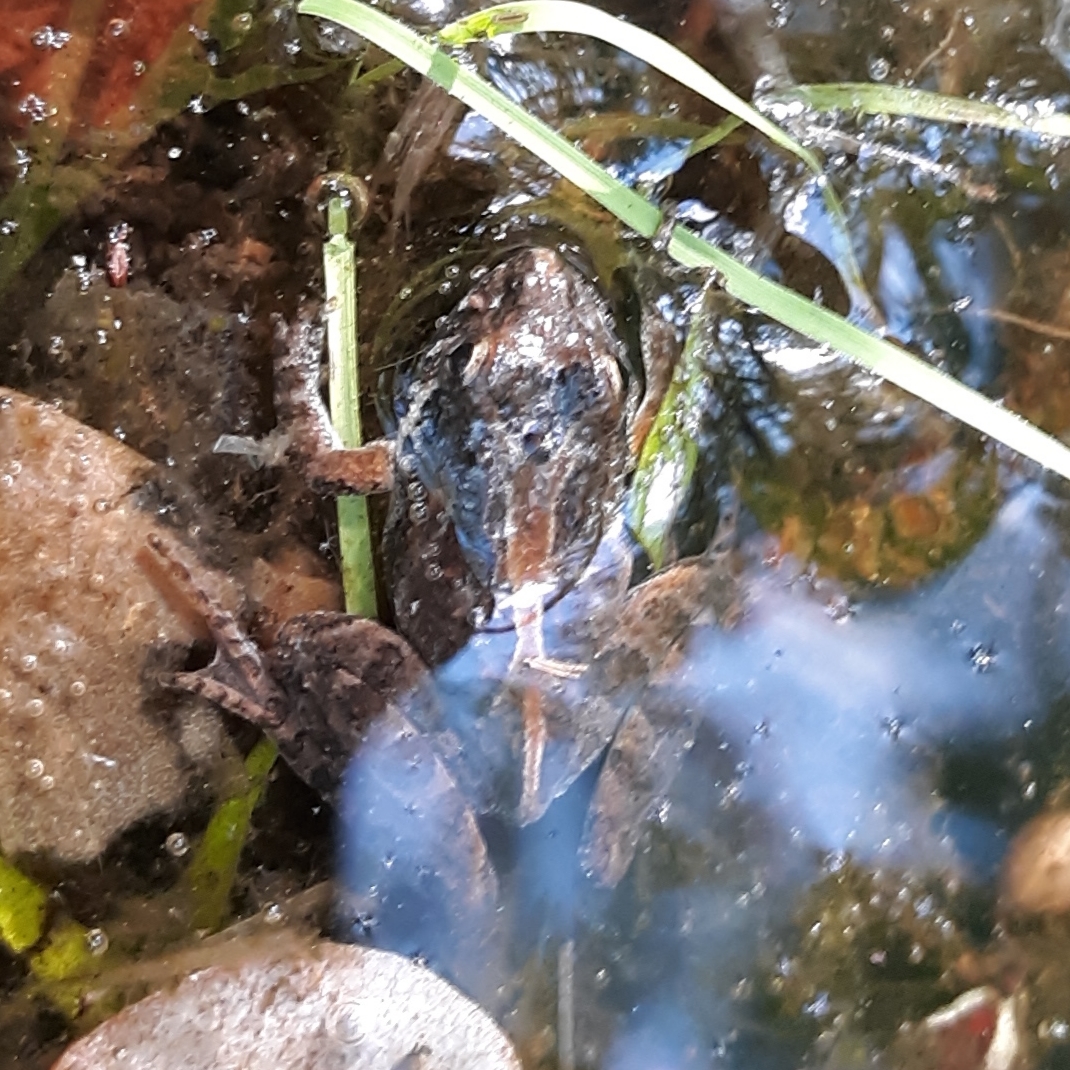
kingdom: Animalia
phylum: Chordata
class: Amphibia
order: Anura
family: Hylidae
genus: Acris
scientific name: Acris gryllus
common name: Southern cricket frog
